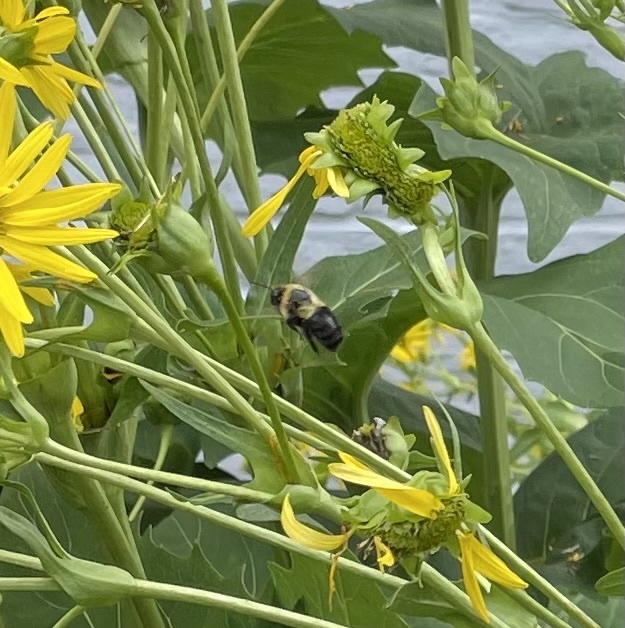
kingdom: Animalia
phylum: Arthropoda
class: Insecta
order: Hymenoptera
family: Apidae
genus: Bombus
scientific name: Bombus impatiens
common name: Common eastern bumble bee
